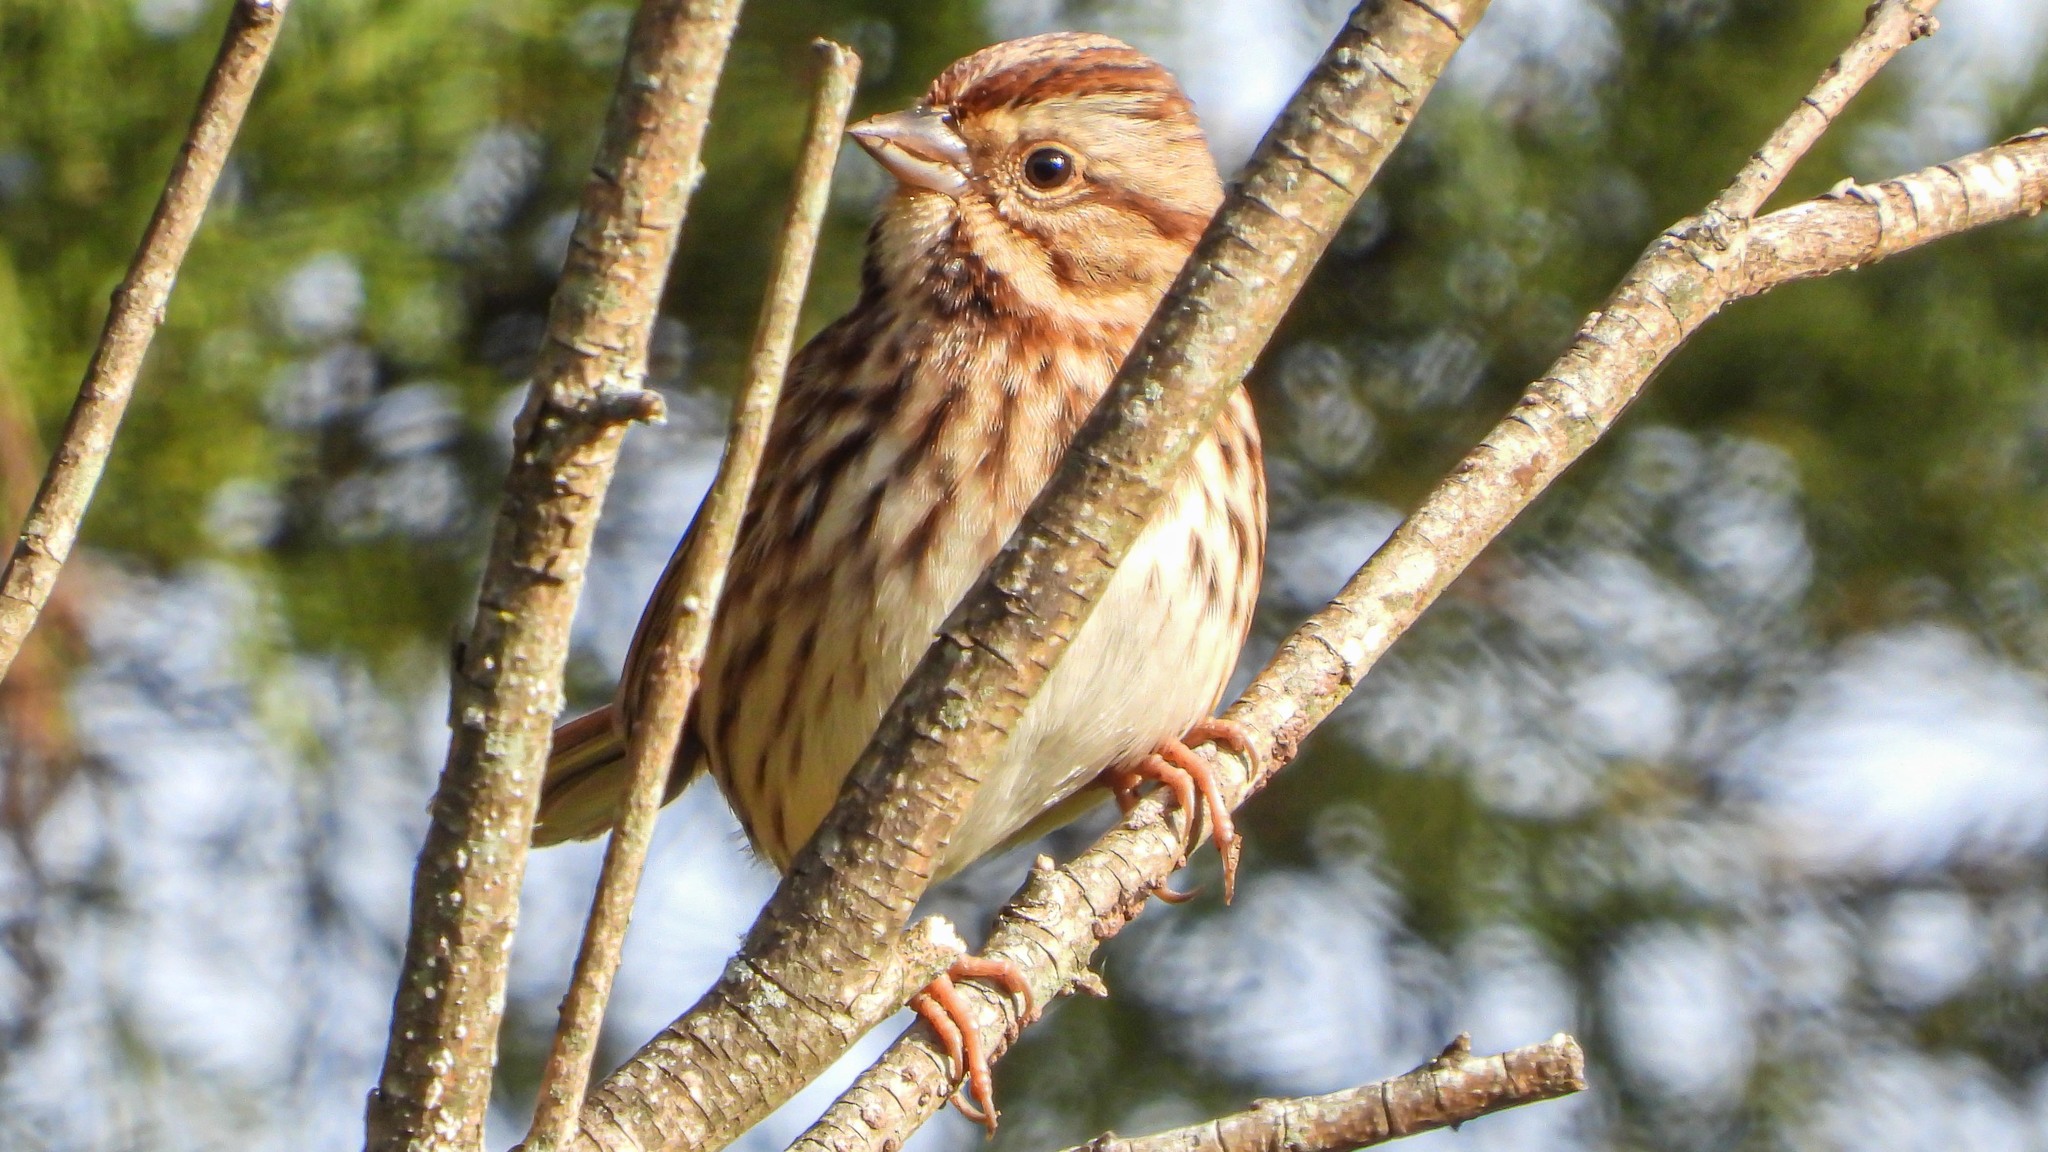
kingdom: Animalia
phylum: Chordata
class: Aves
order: Passeriformes
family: Passerellidae
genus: Melospiza
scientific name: Melospiza melodia
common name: Song sparrow
